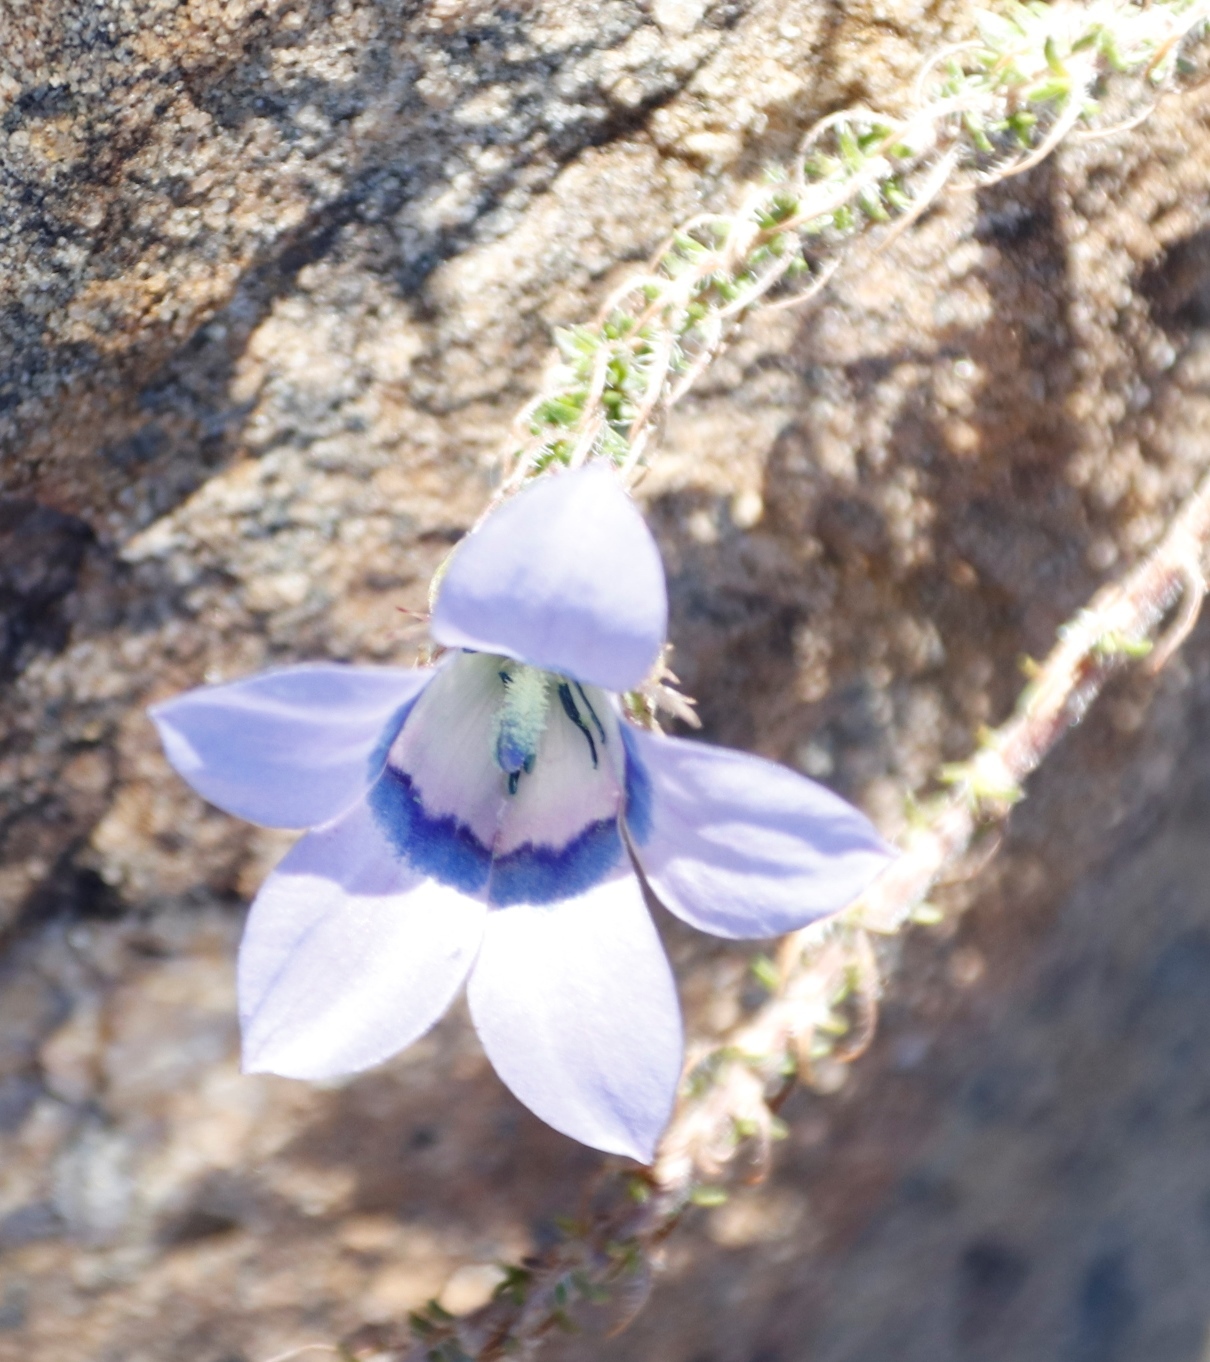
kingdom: Plantae
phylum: Tracheophyta
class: Magnoliopsida
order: Asterales
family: Campanulaceae
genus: Roella
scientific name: Roella ciliata
